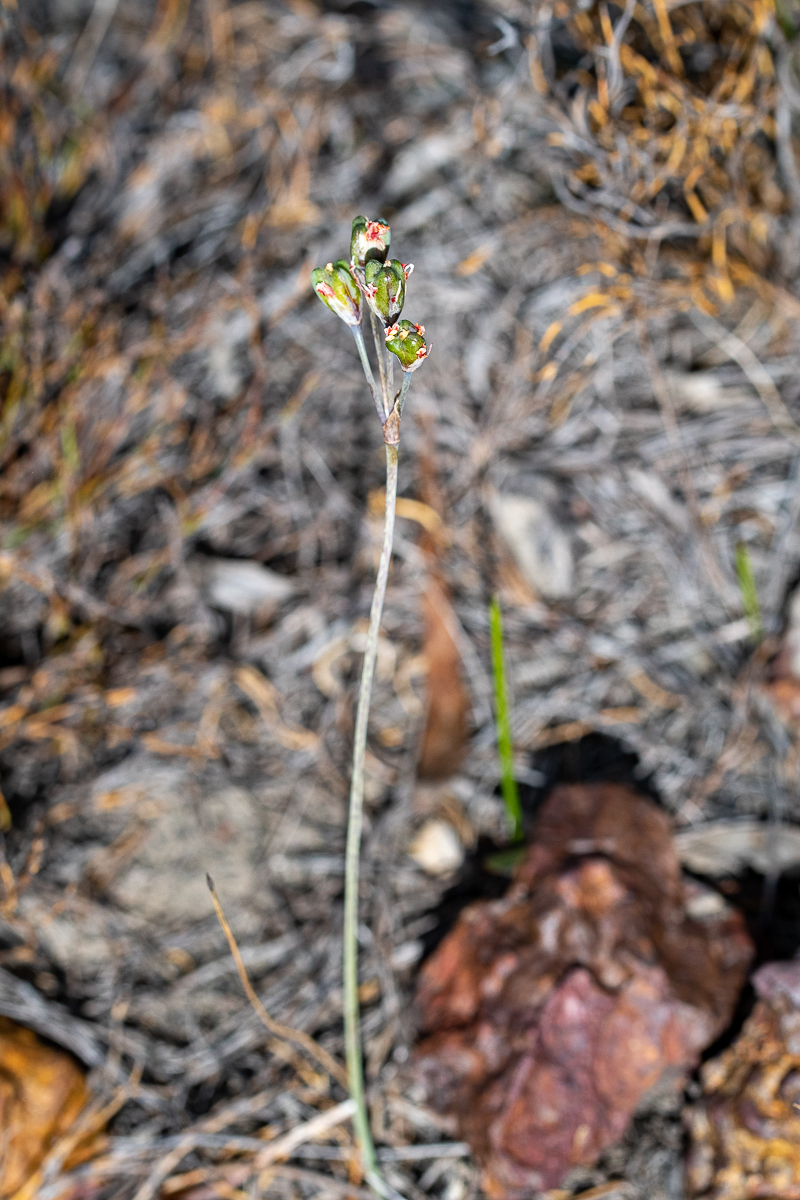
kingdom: Plantae
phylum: Tracheophyta
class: Liliopsida
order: Asparagales
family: Amaryllidaceae
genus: Tulbaghia
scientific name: Tulbaghia capensis
